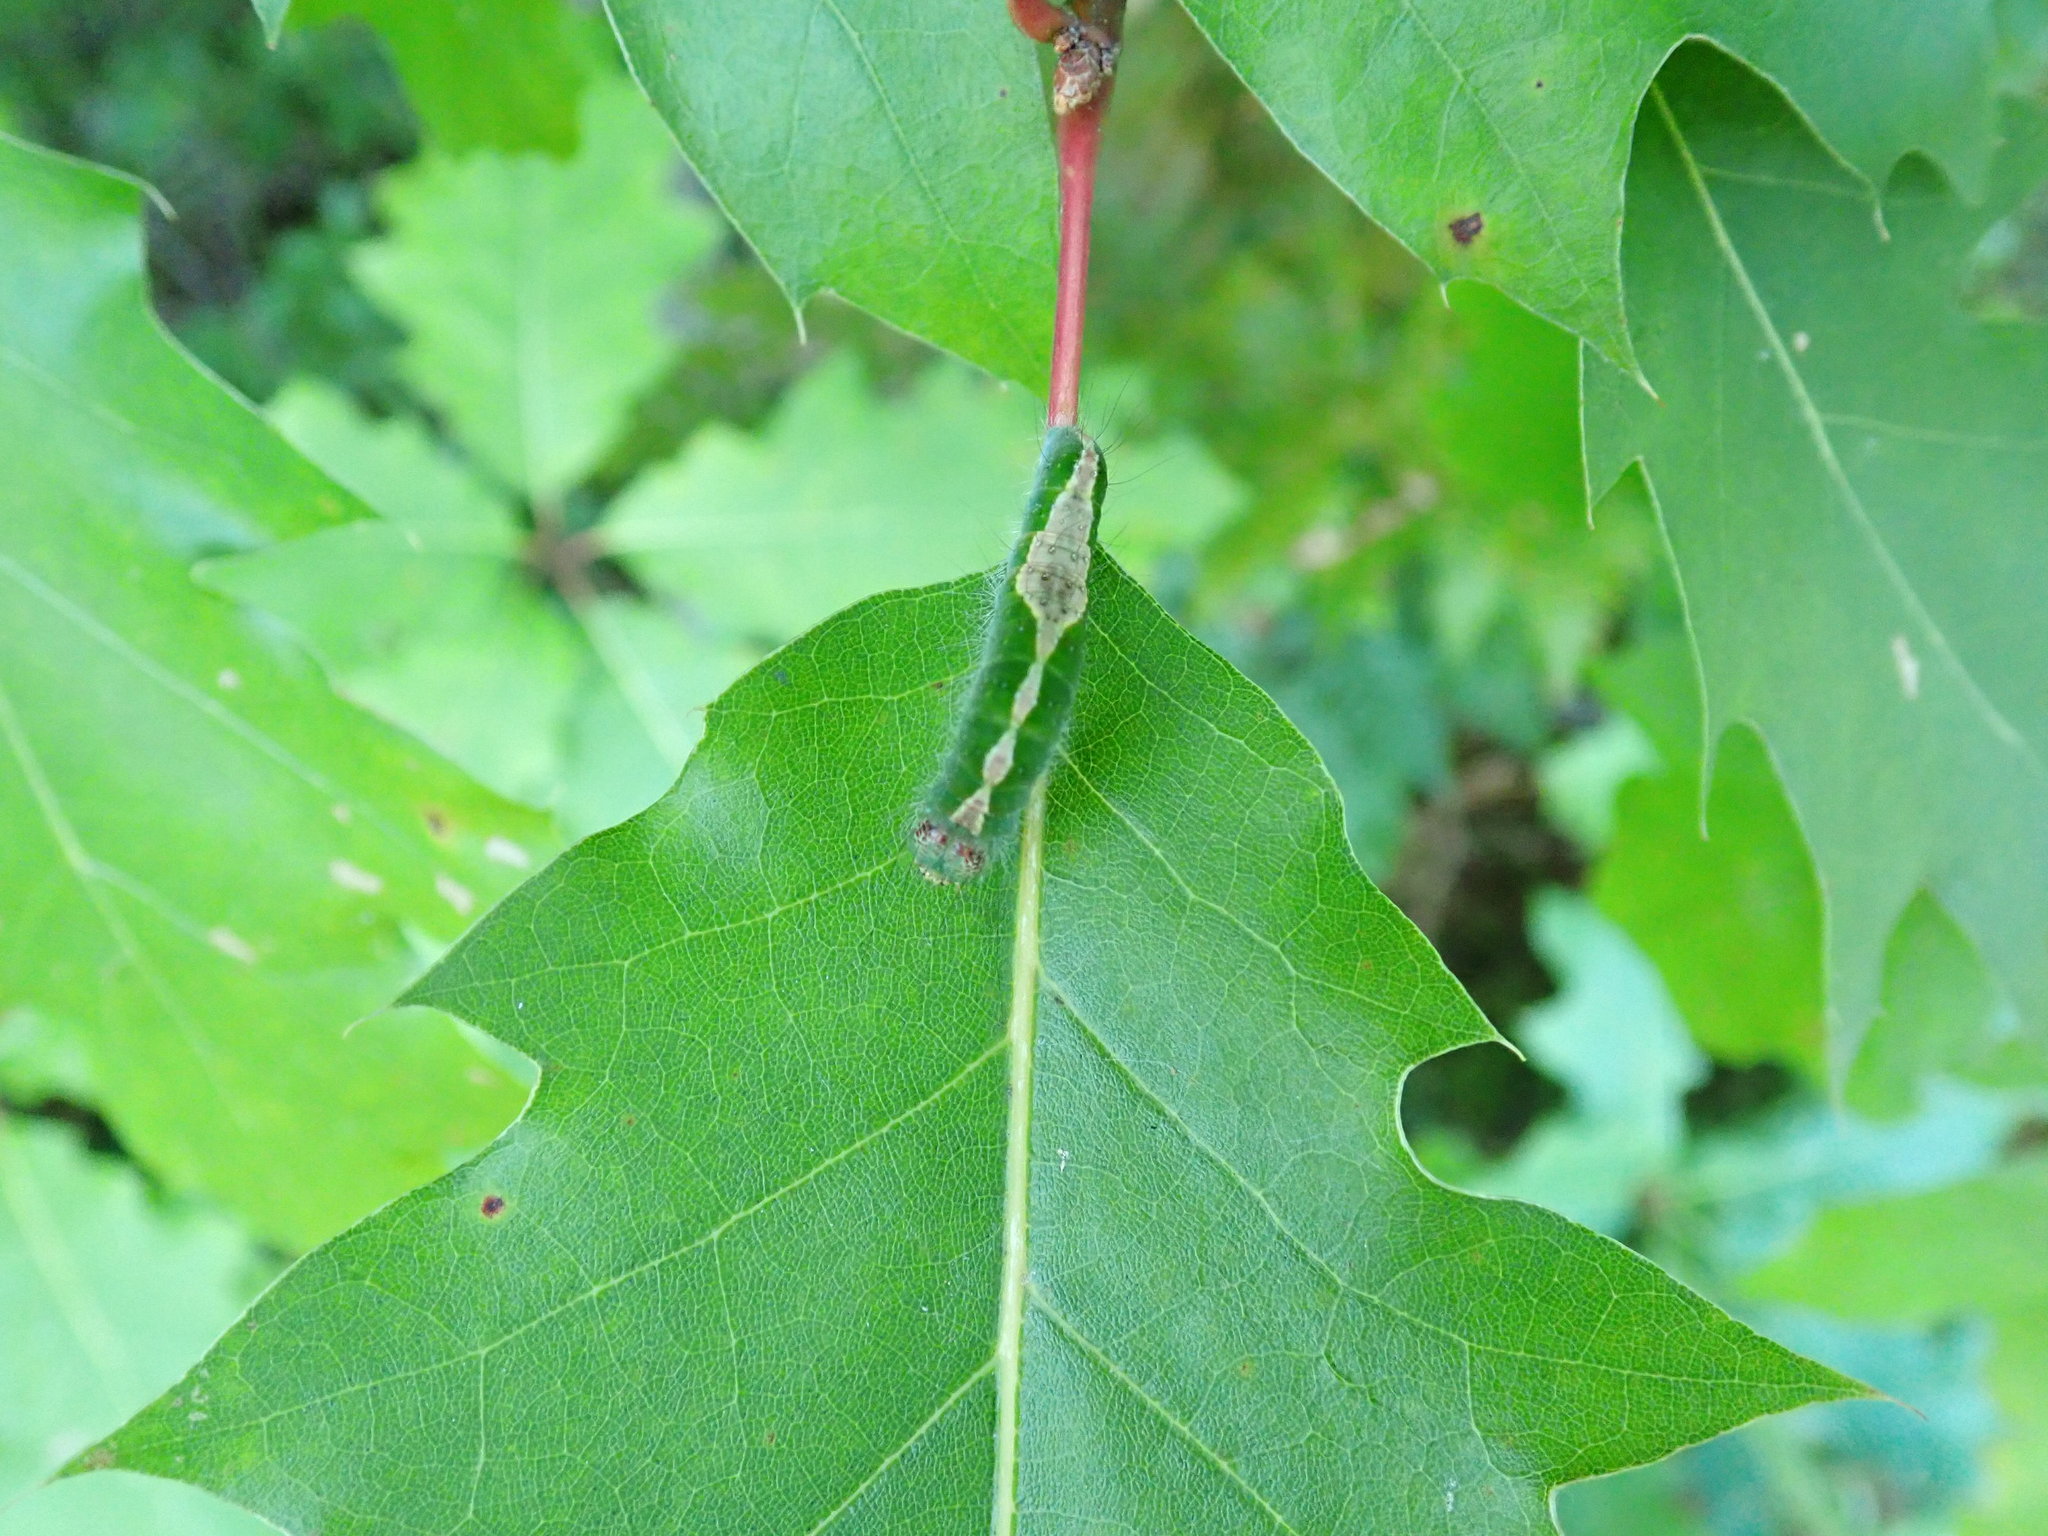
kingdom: Animalia
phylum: Arthropoda
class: Insecta
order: Lepidoptera
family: Noctuidae
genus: Acronicta
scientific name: Acronicta lithospila
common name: Streaked dagger
